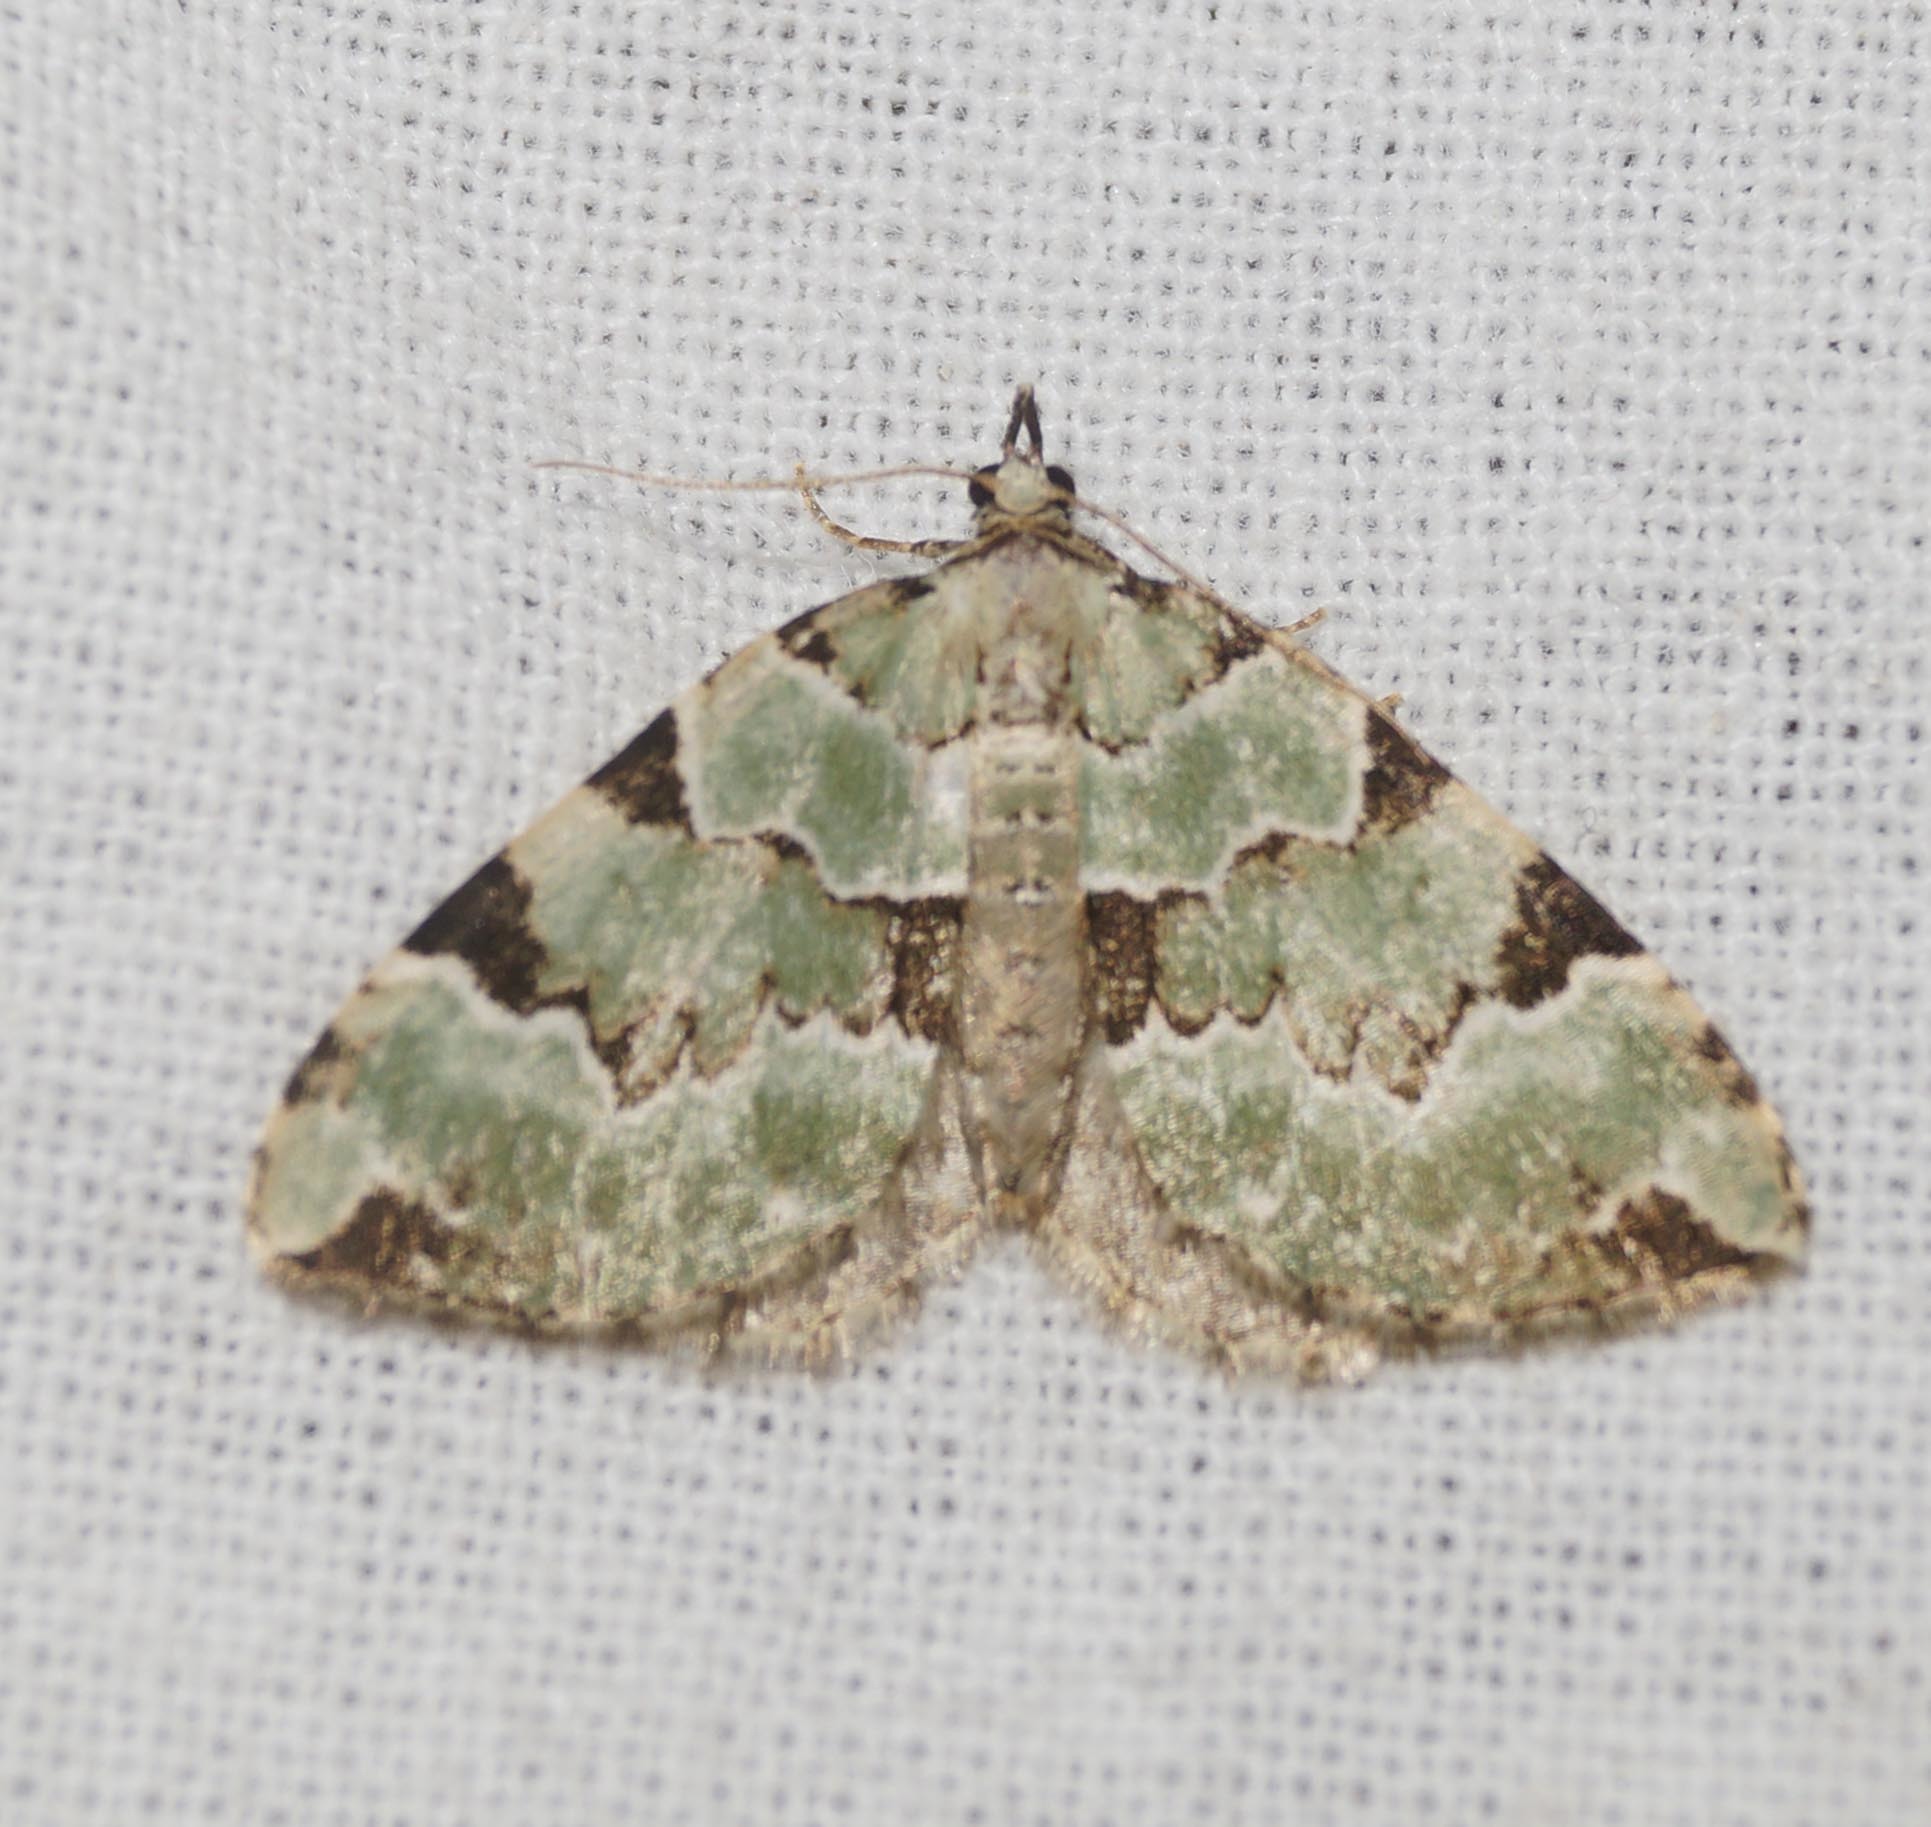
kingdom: Animalia
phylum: Arthropoda
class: Insecta
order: Lepidoptera
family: Geometridae
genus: Colostygia
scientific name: Colostygia pectinataria
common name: Green carpet
